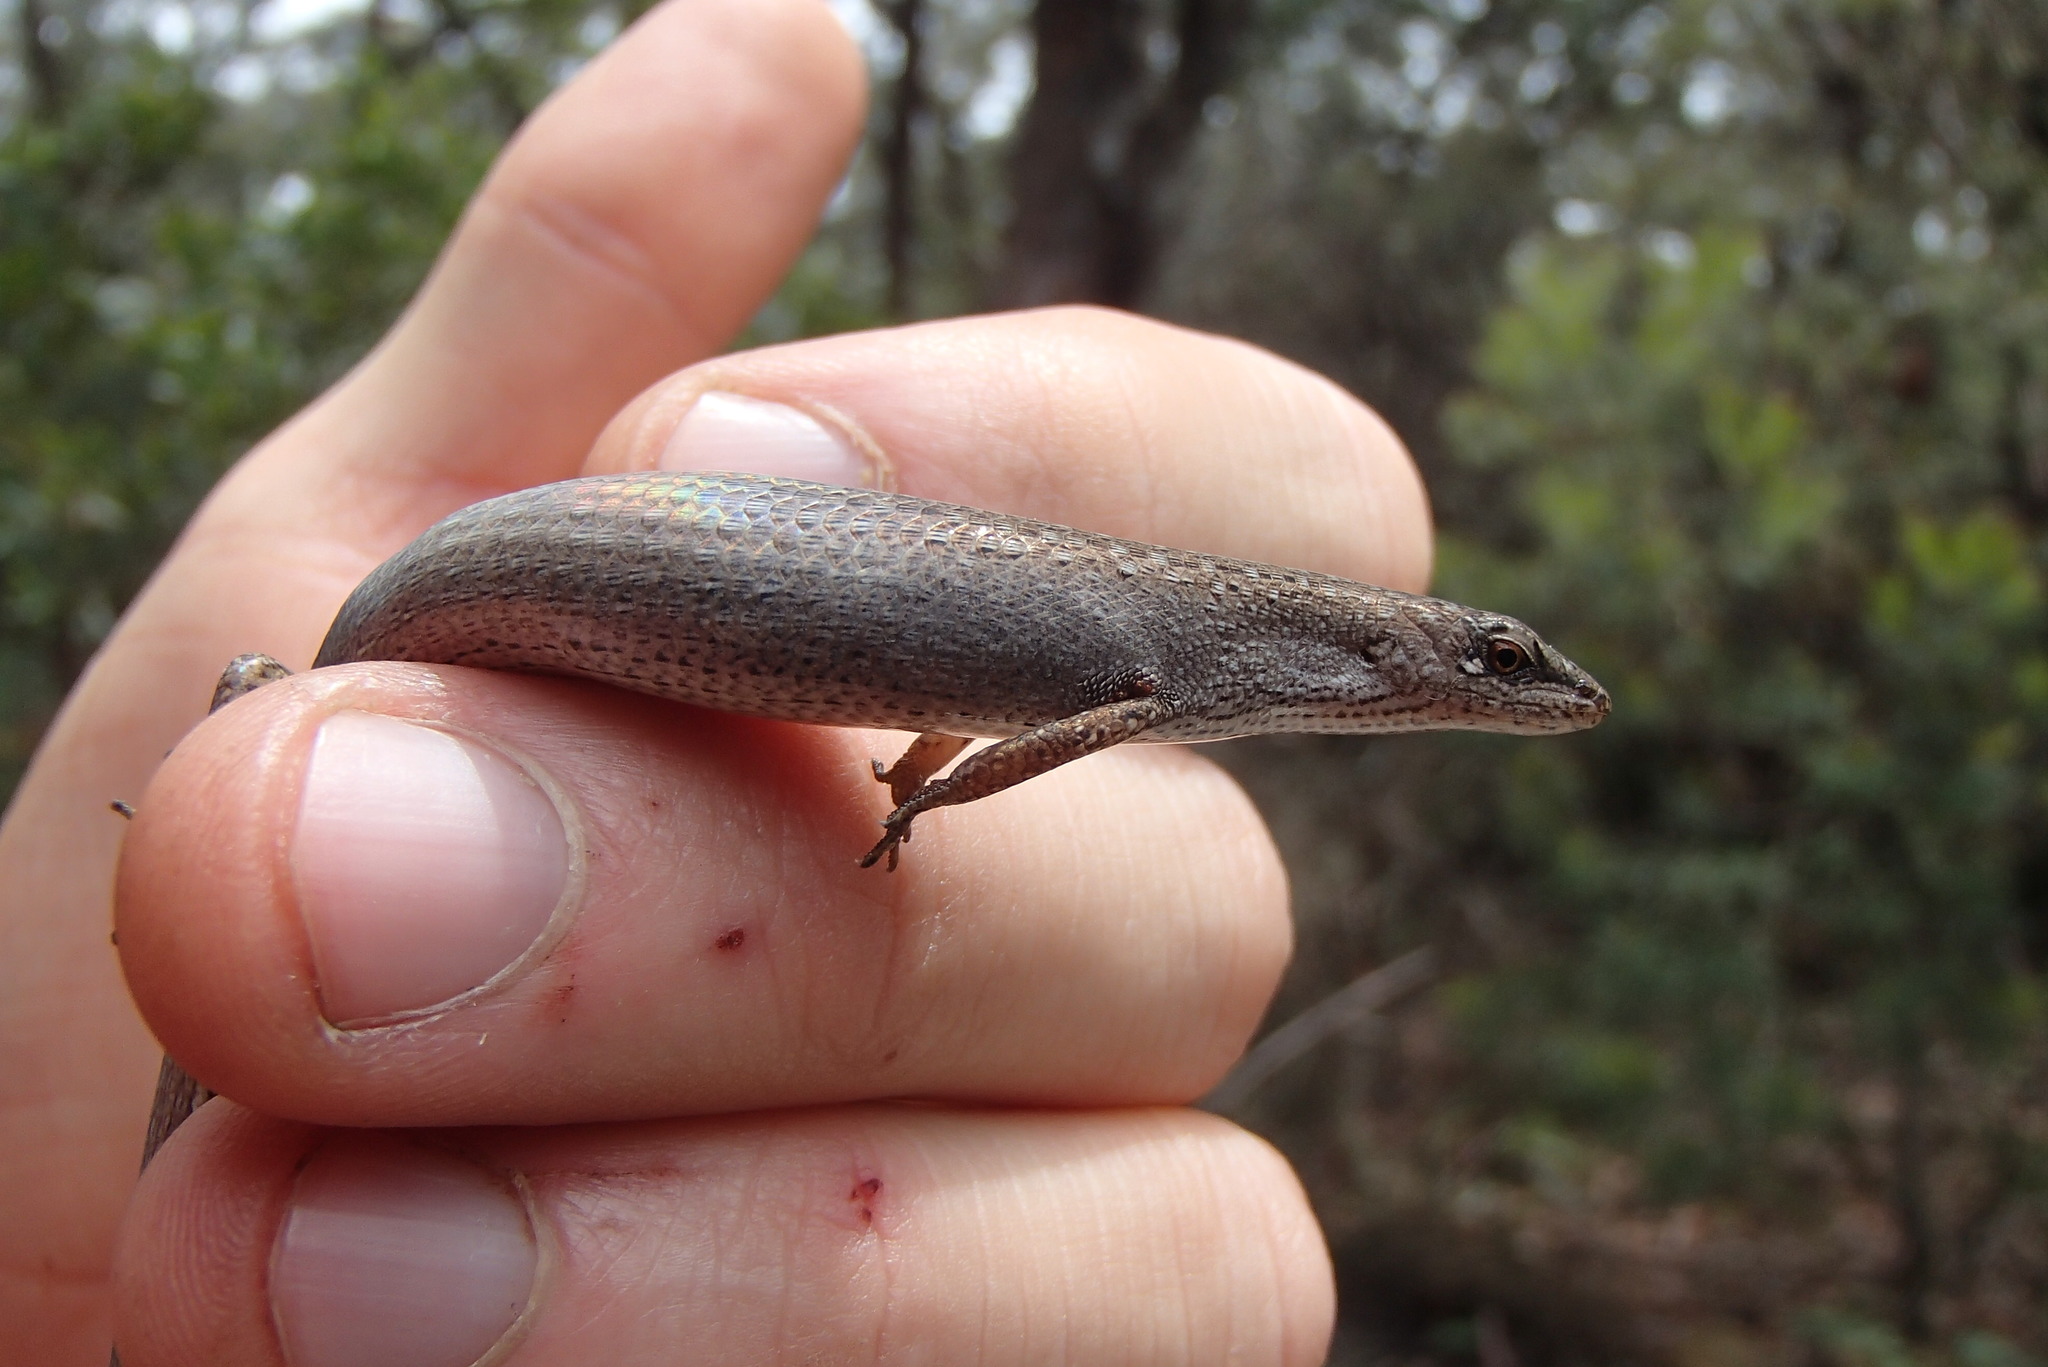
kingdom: Animalia
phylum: Chordata
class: Squamata
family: Scincidae
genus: Saproscincus
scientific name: Saproscincus mustelinus
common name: Southern weasel skink
